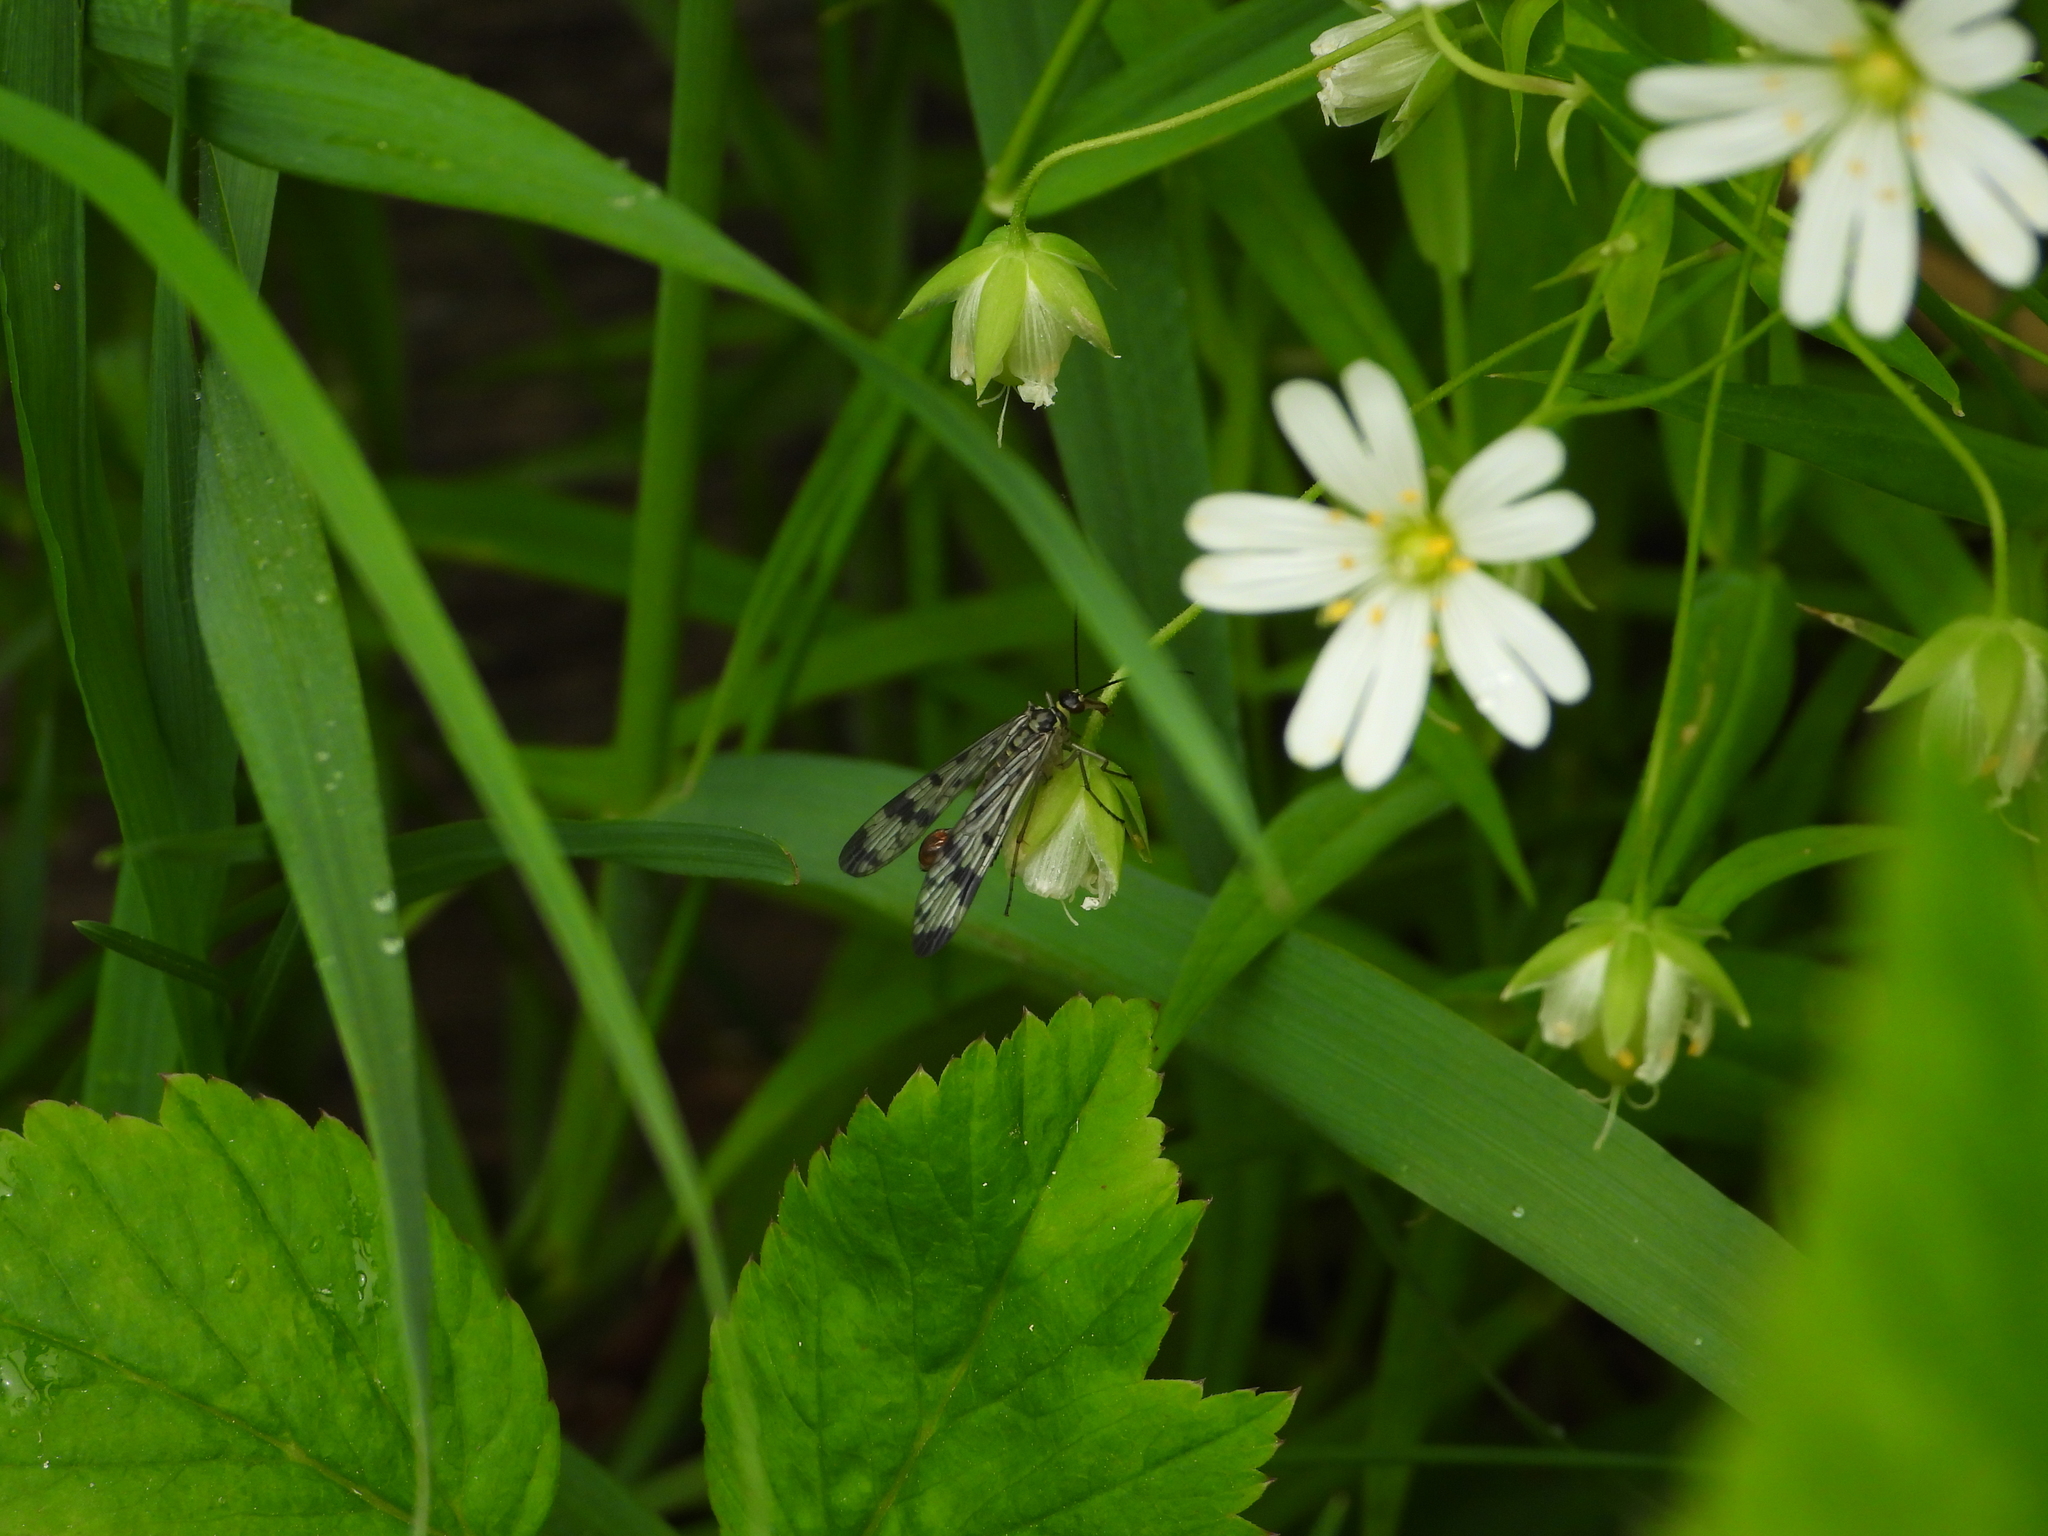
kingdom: Animalia
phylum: Arthropoda
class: Insecta
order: Mecoptera
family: Panorpidae
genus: Panorpa
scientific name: Panorpa communis
